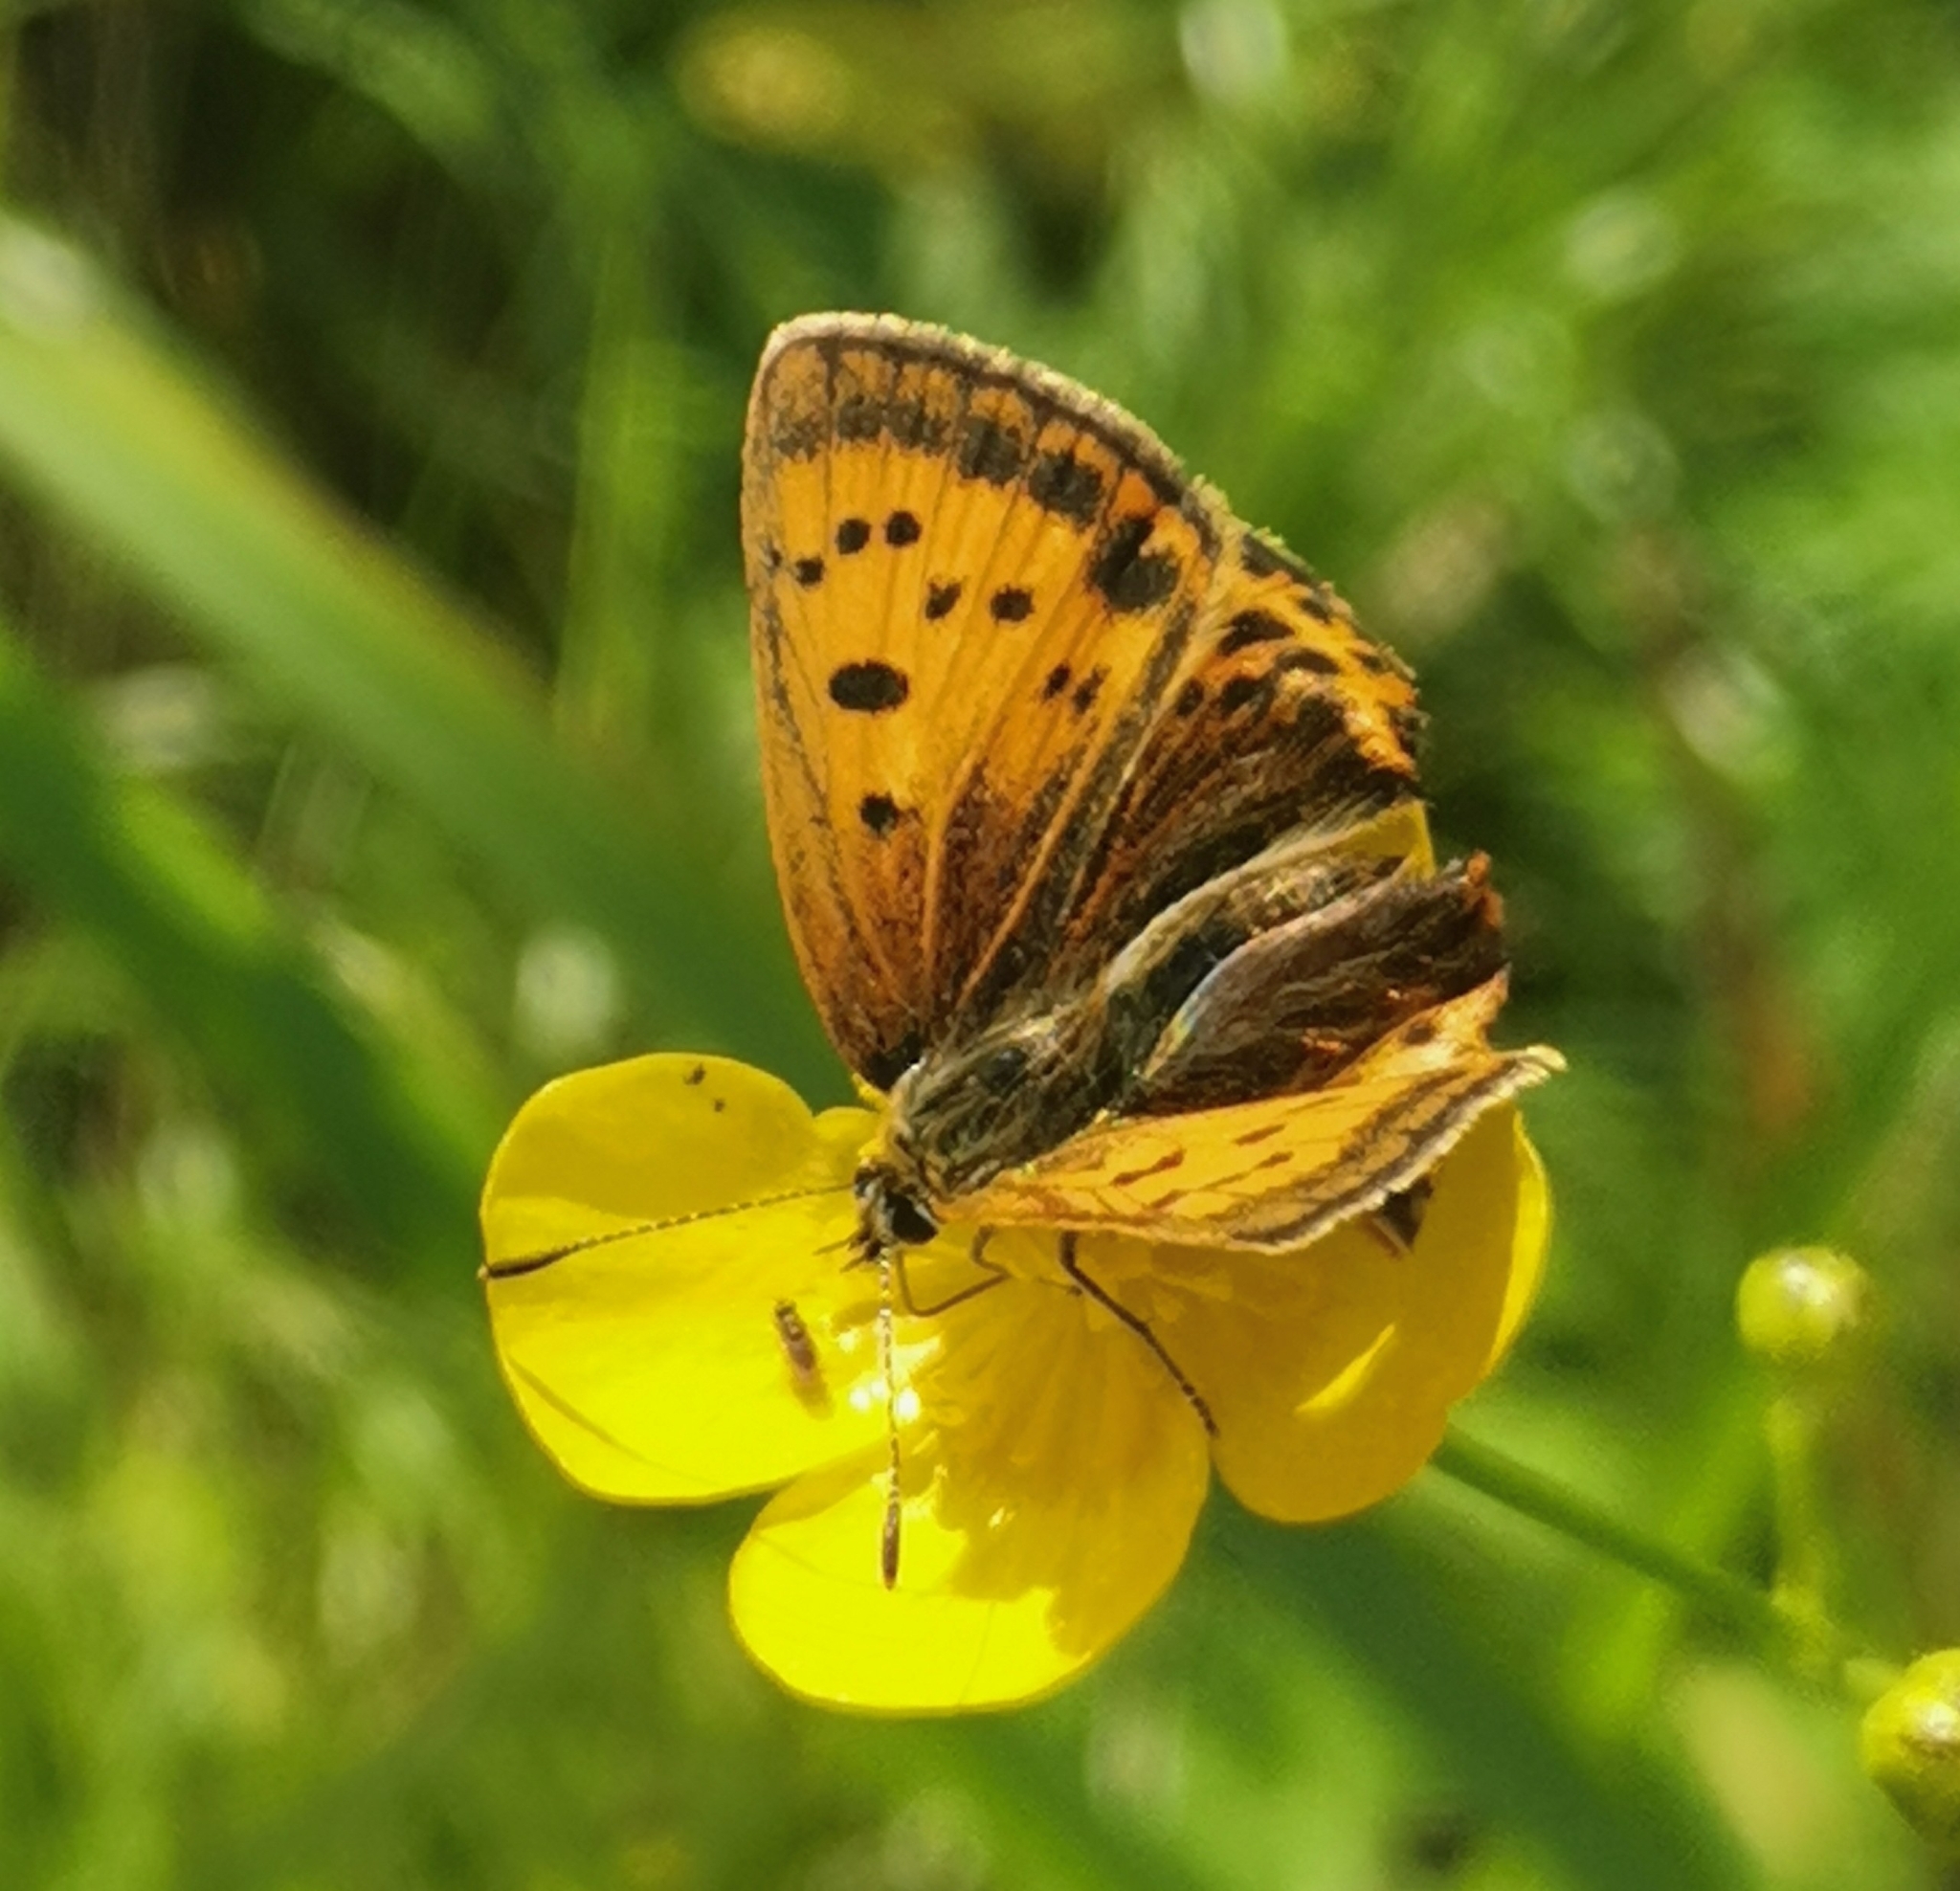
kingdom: Animalia
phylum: Arthropoda
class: Insecta
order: Lepidoptera
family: Lycaenidae
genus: Lycaena
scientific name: Lycaena virgaureae
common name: Scarce copper
